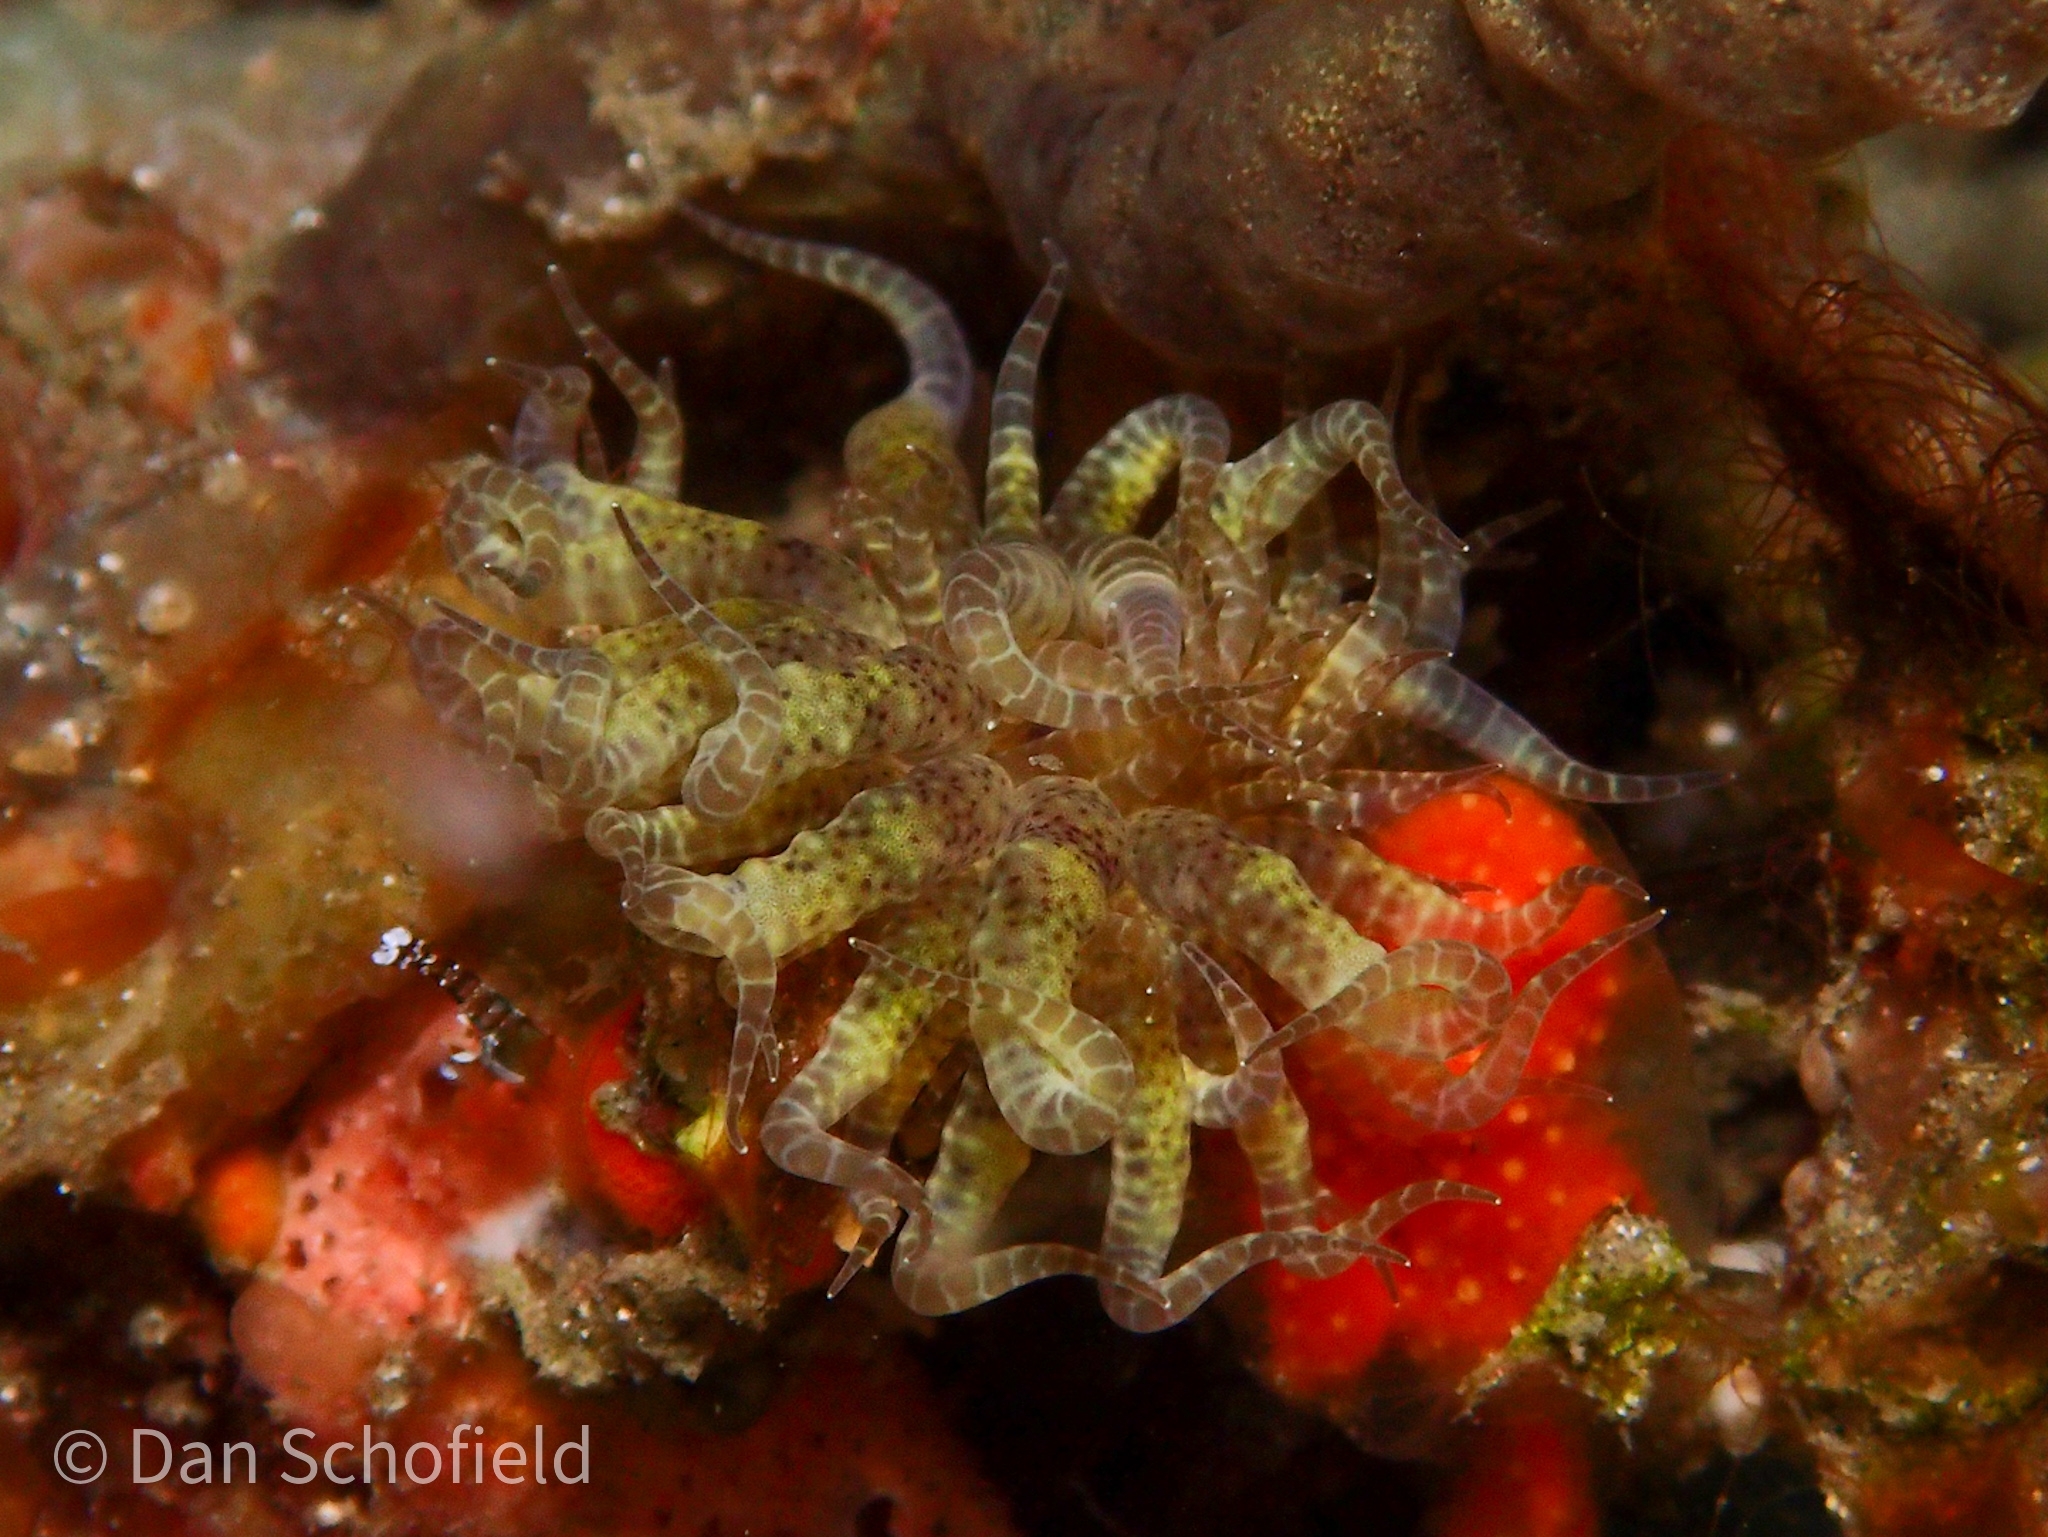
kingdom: Animalia
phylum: Cnidaria
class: Anthozoa
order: Actiniaria
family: Boloceroididae
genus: Boloceroides
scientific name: Boloceroides mcmurrichi
